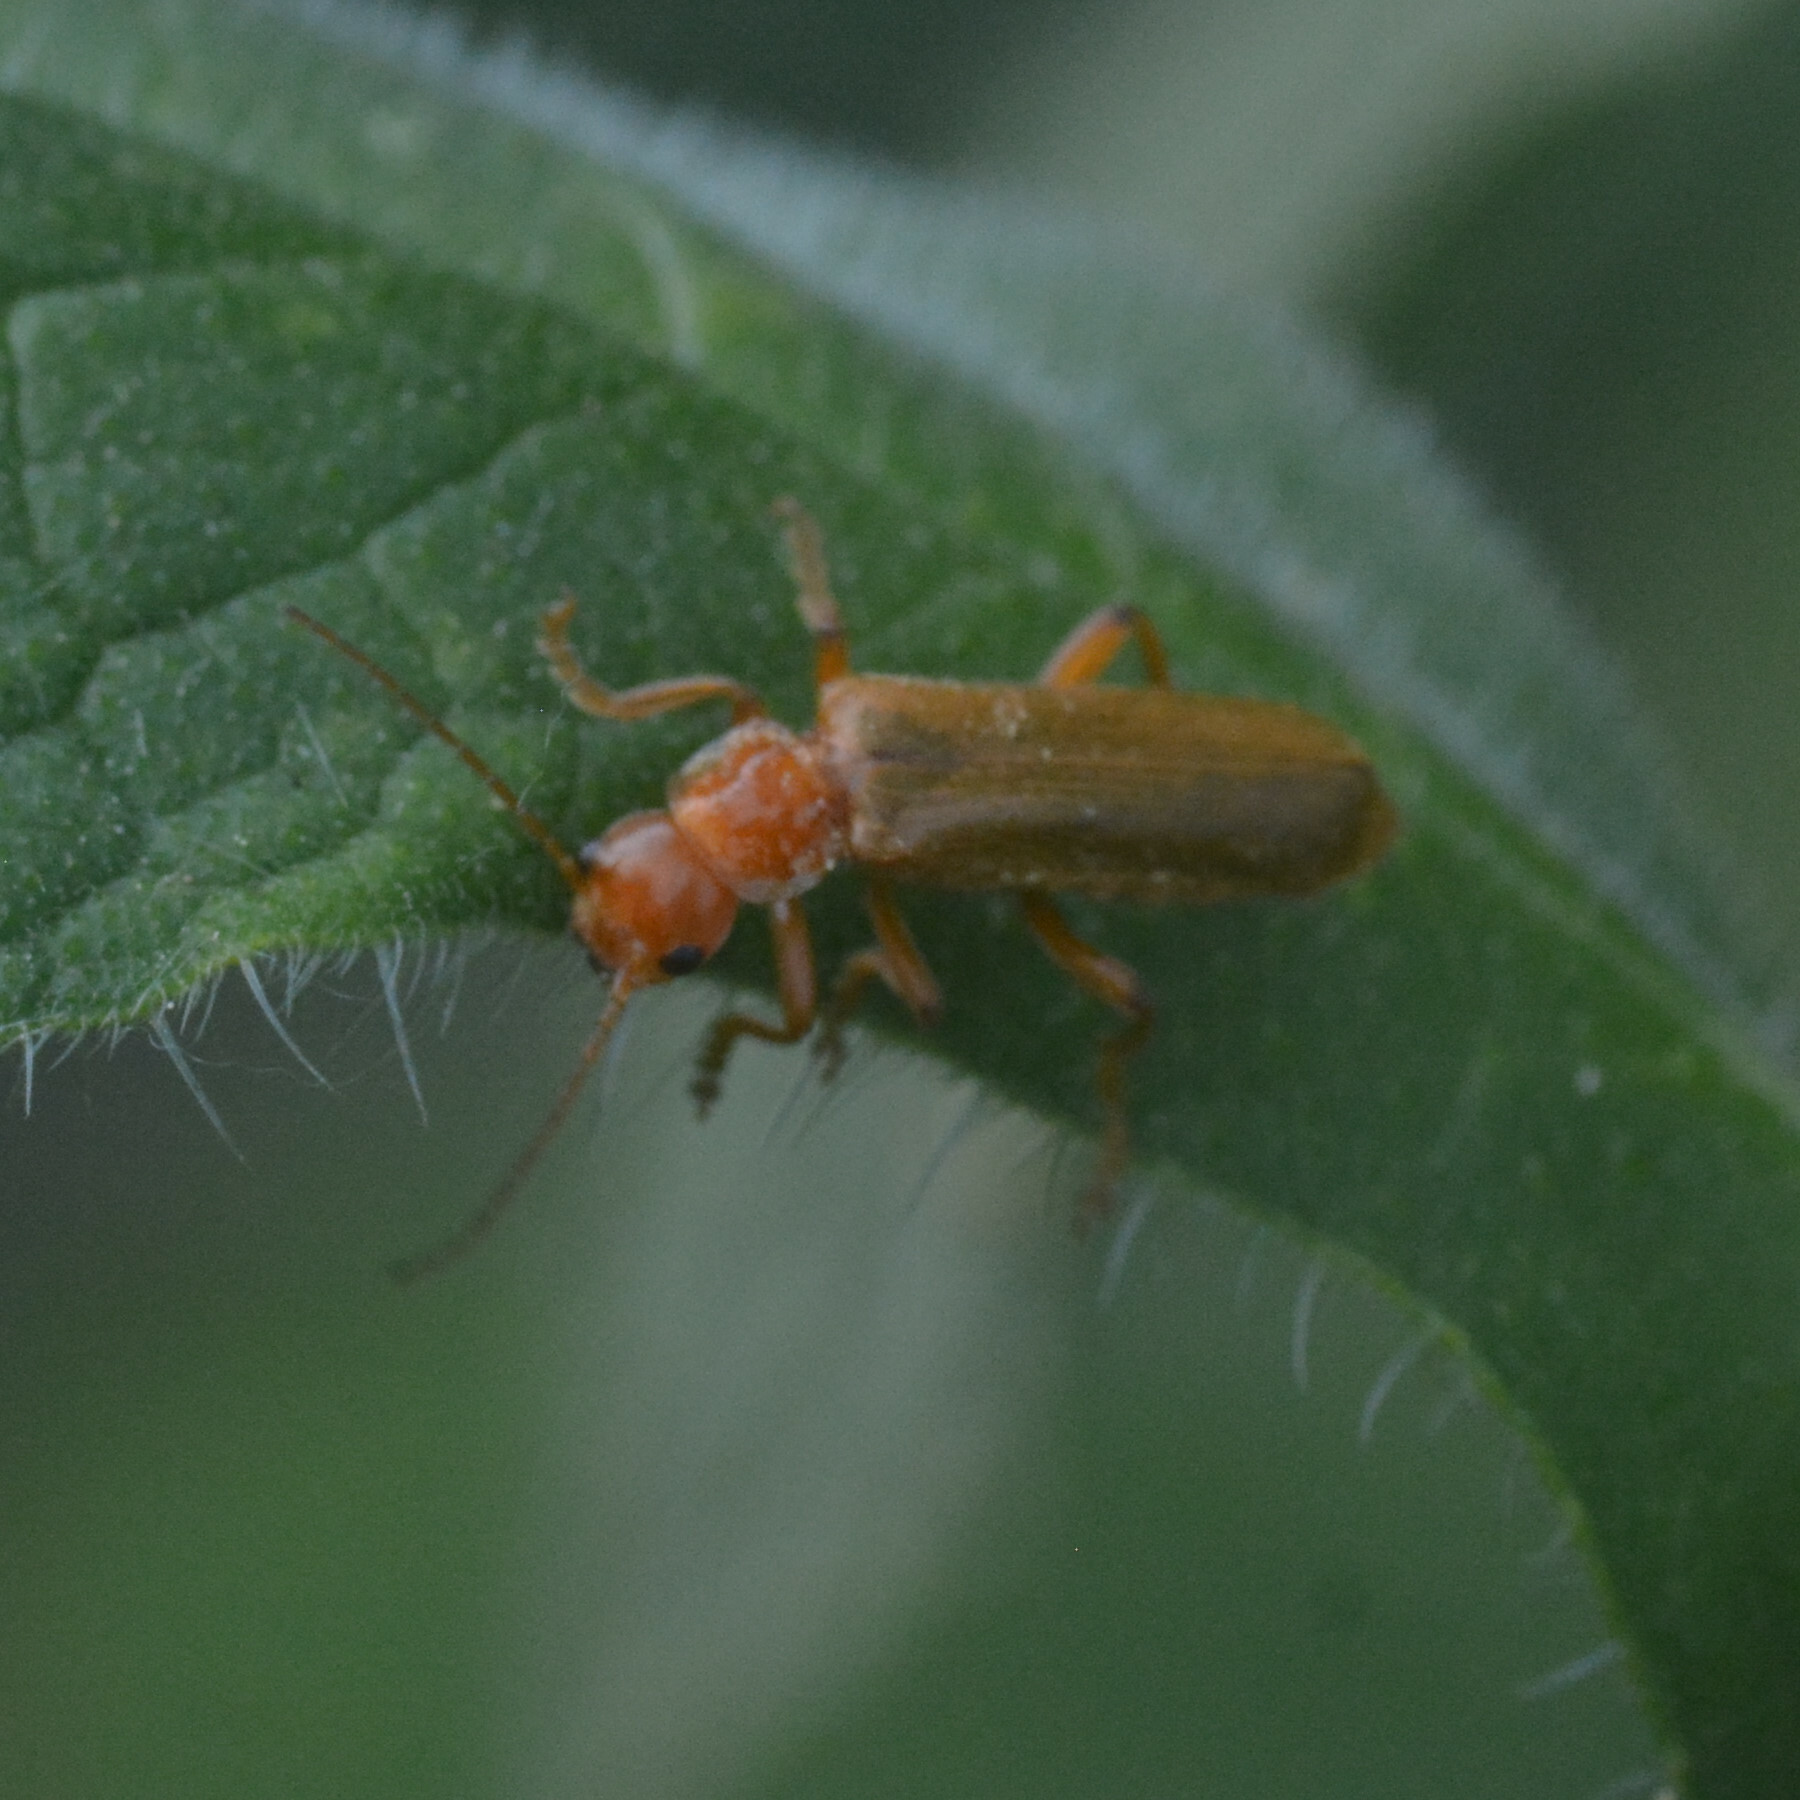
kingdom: Animalia
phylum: Arthropoda
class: Insecta
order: Coleoptera
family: Cantharidae
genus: Cantharis
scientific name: Cantharis cryptica
